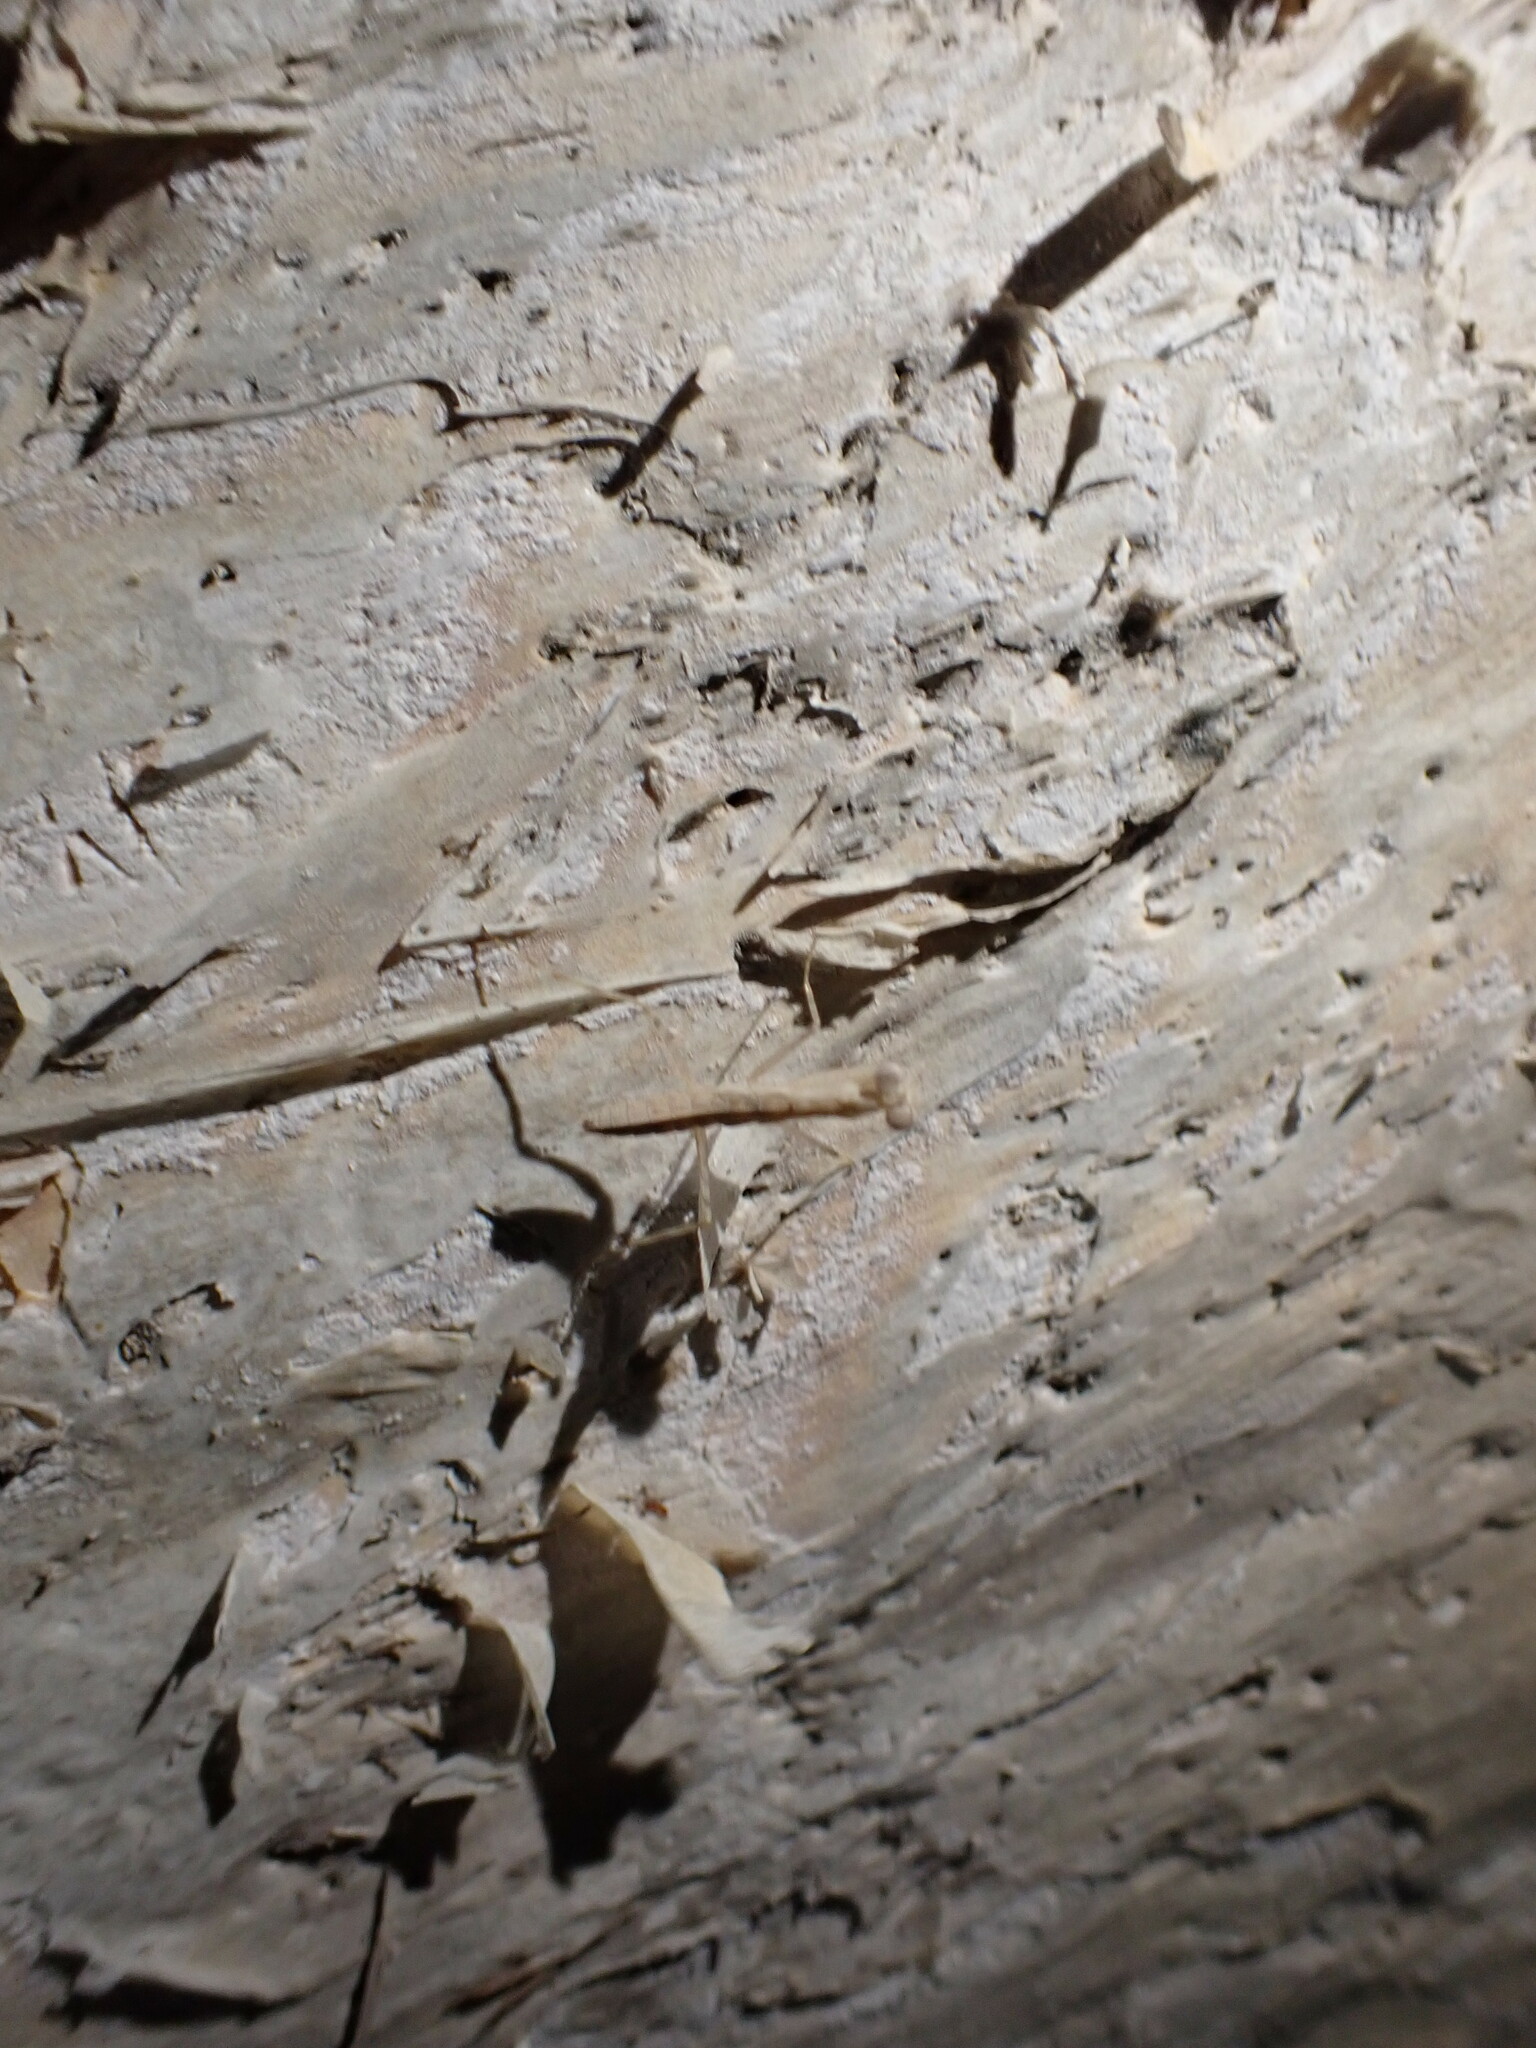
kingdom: Animalia
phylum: Arthropoda
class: Insecta
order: Mantodea
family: Nanomantidae
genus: Ima
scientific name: Ima fusca
